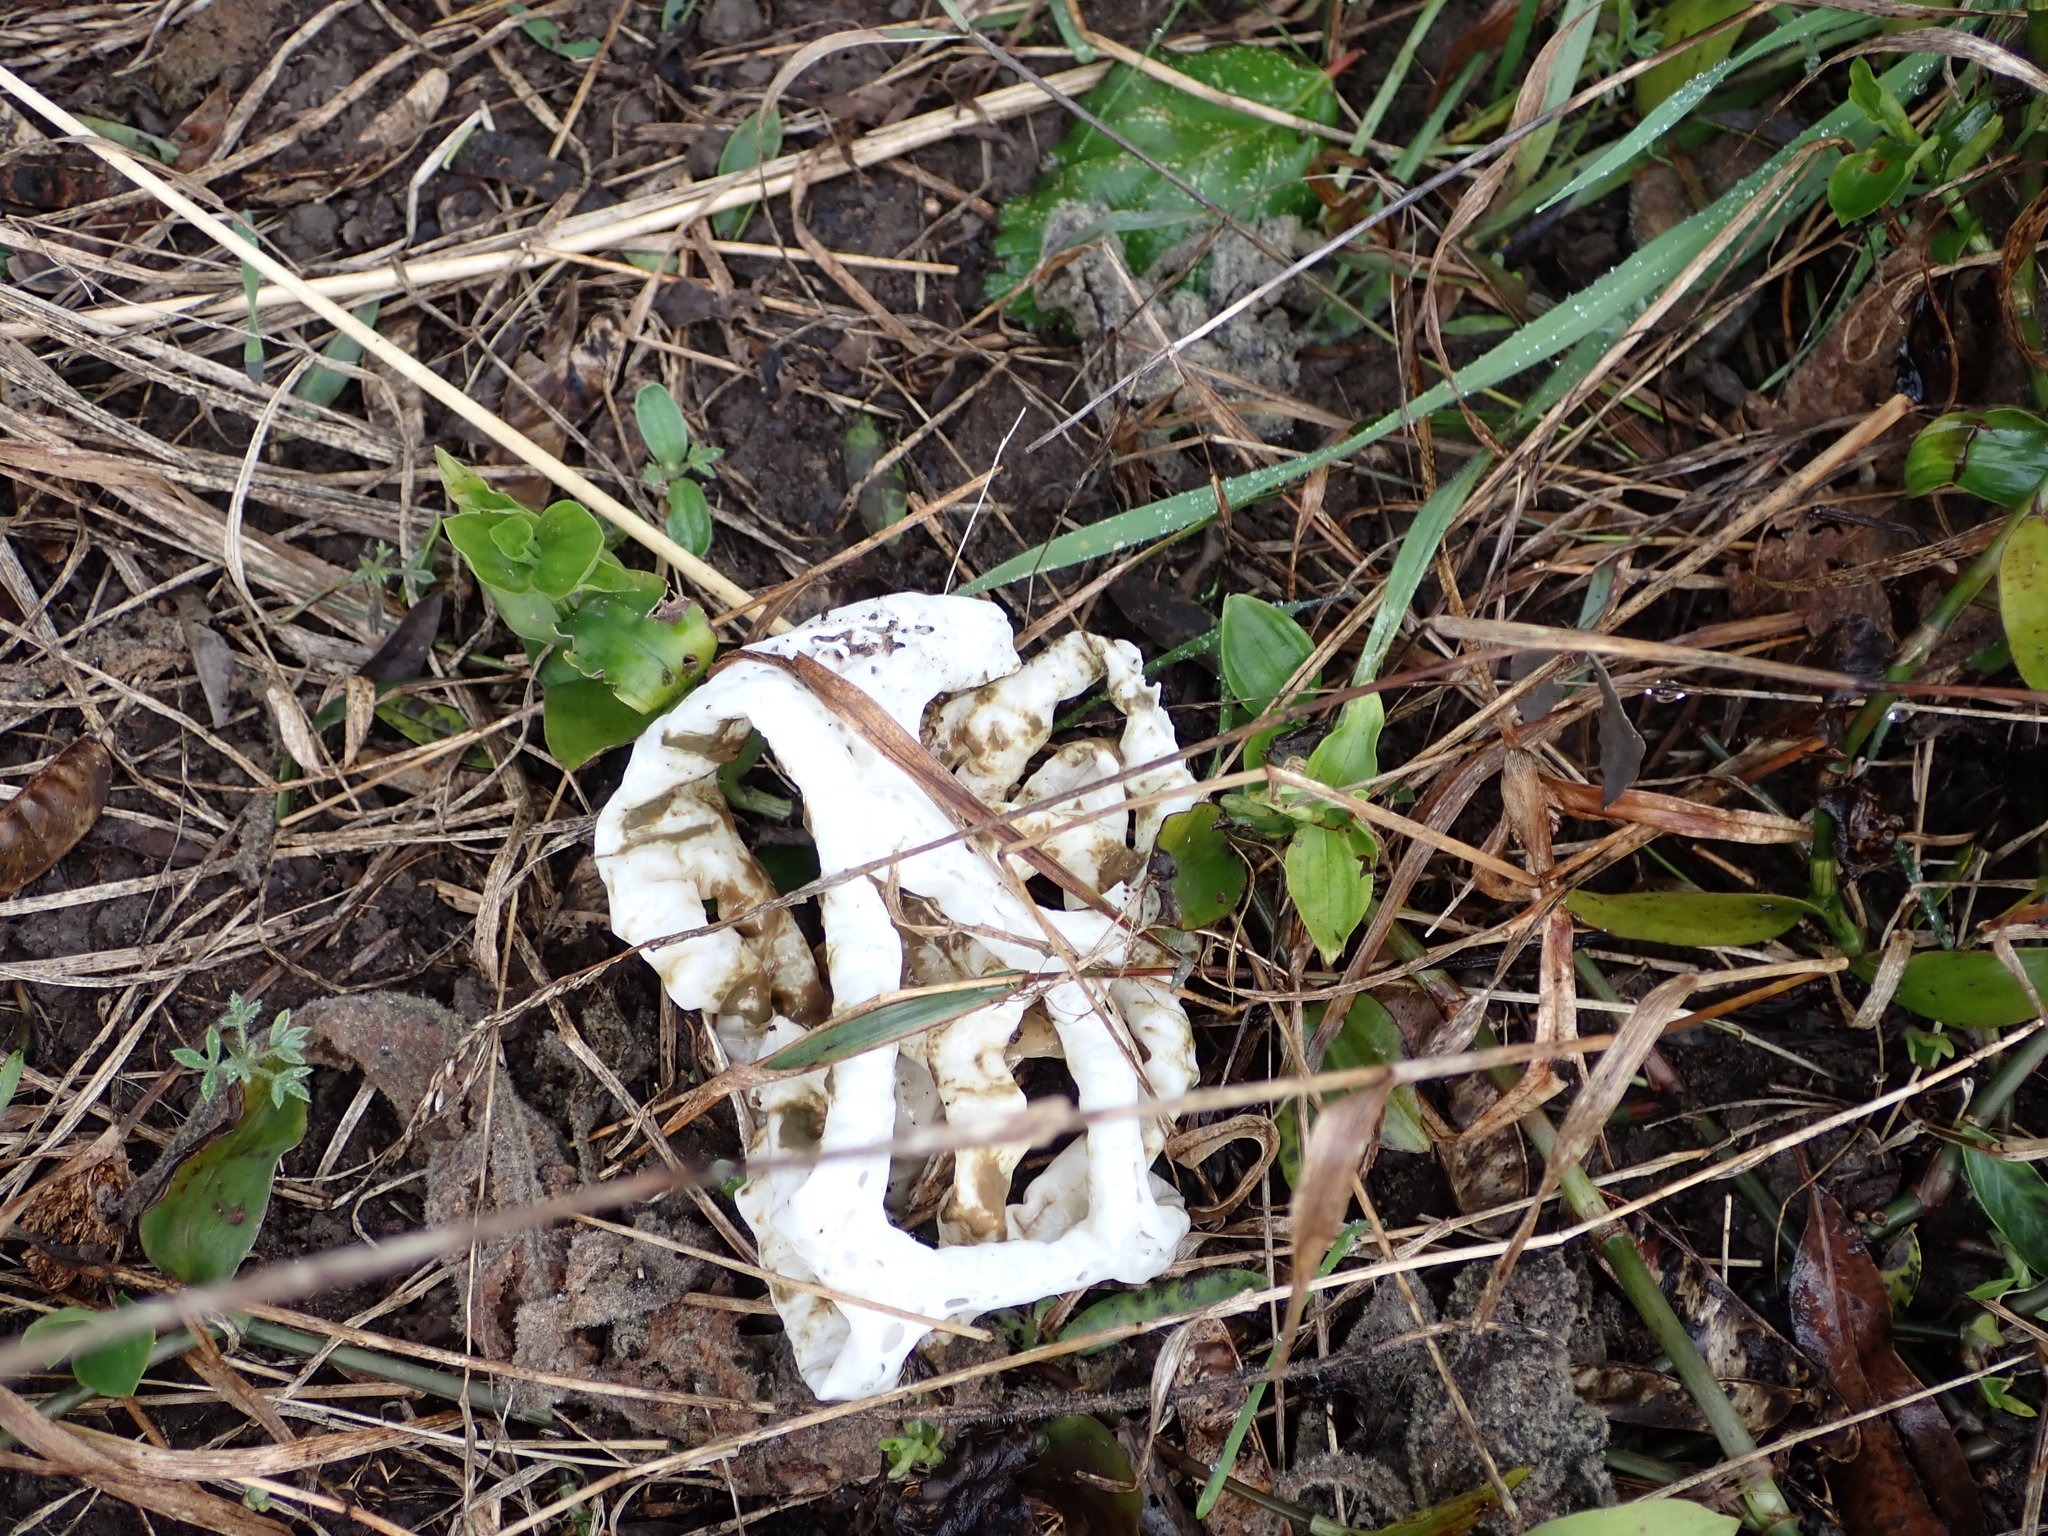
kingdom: Fungi
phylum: Basidiomycota
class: Agaricomycetes
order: Phallales
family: Phallaceae
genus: Ileodictyon
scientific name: Ileodictyon cibarium
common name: Basket fungus
